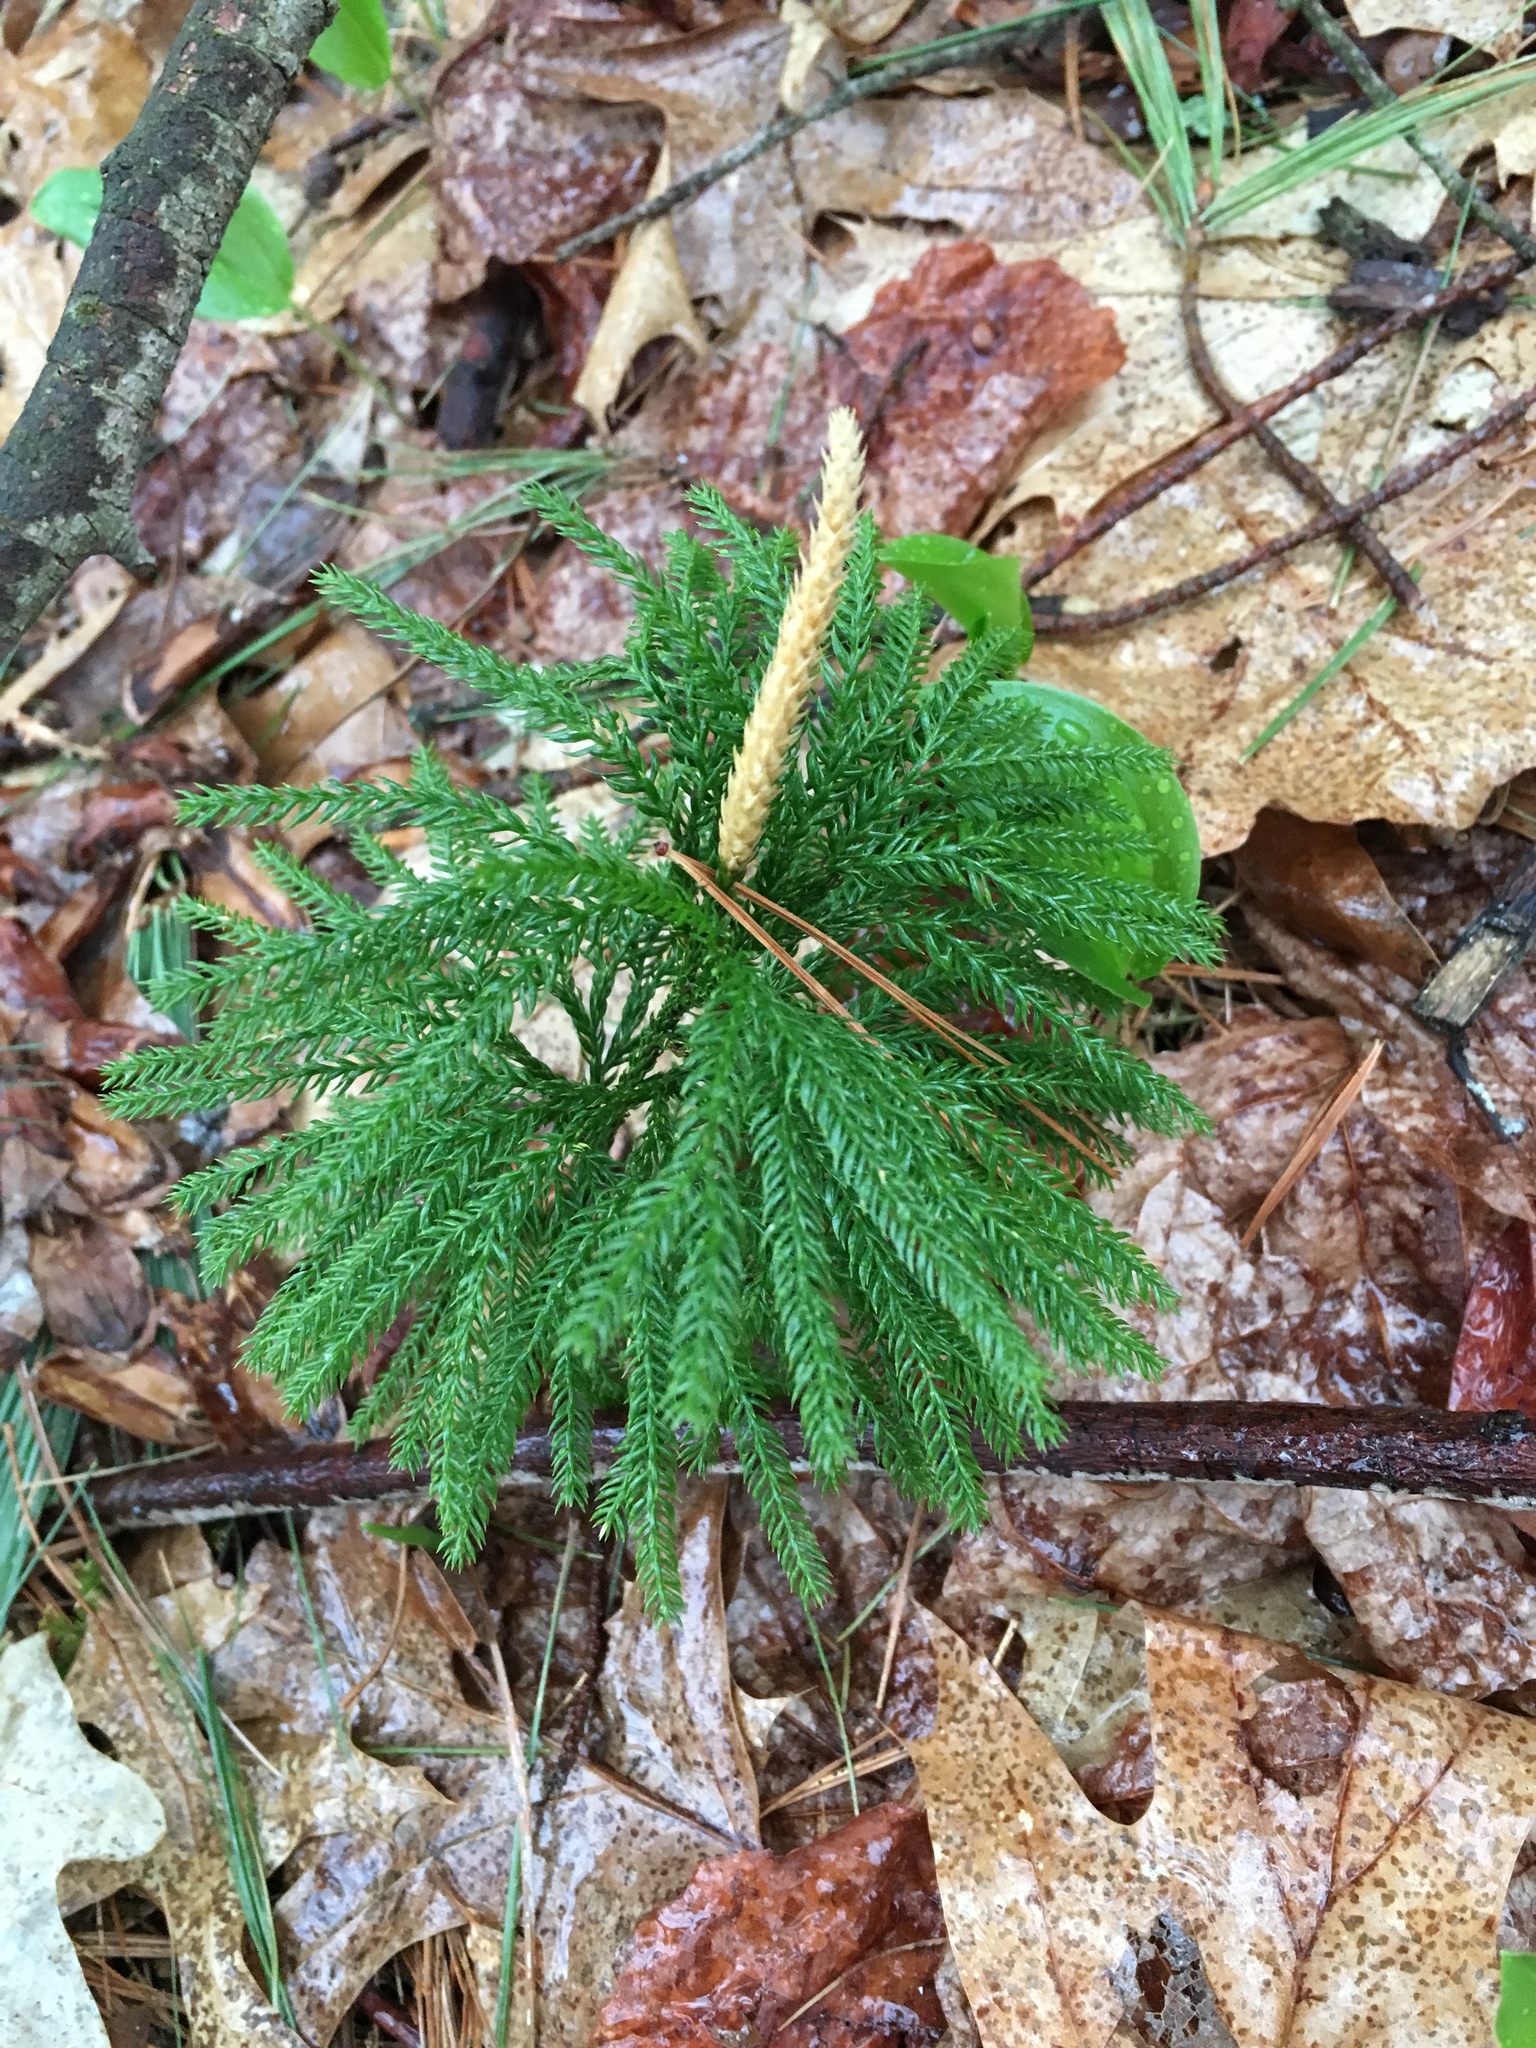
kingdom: Plantae
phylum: Tracheophyta
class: Lycopodiopsida
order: Lycopodiales
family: Lycopodiaceae
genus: Dendrolycopodium
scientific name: Dendrolycopodium obscurum
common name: Common ground-pine
